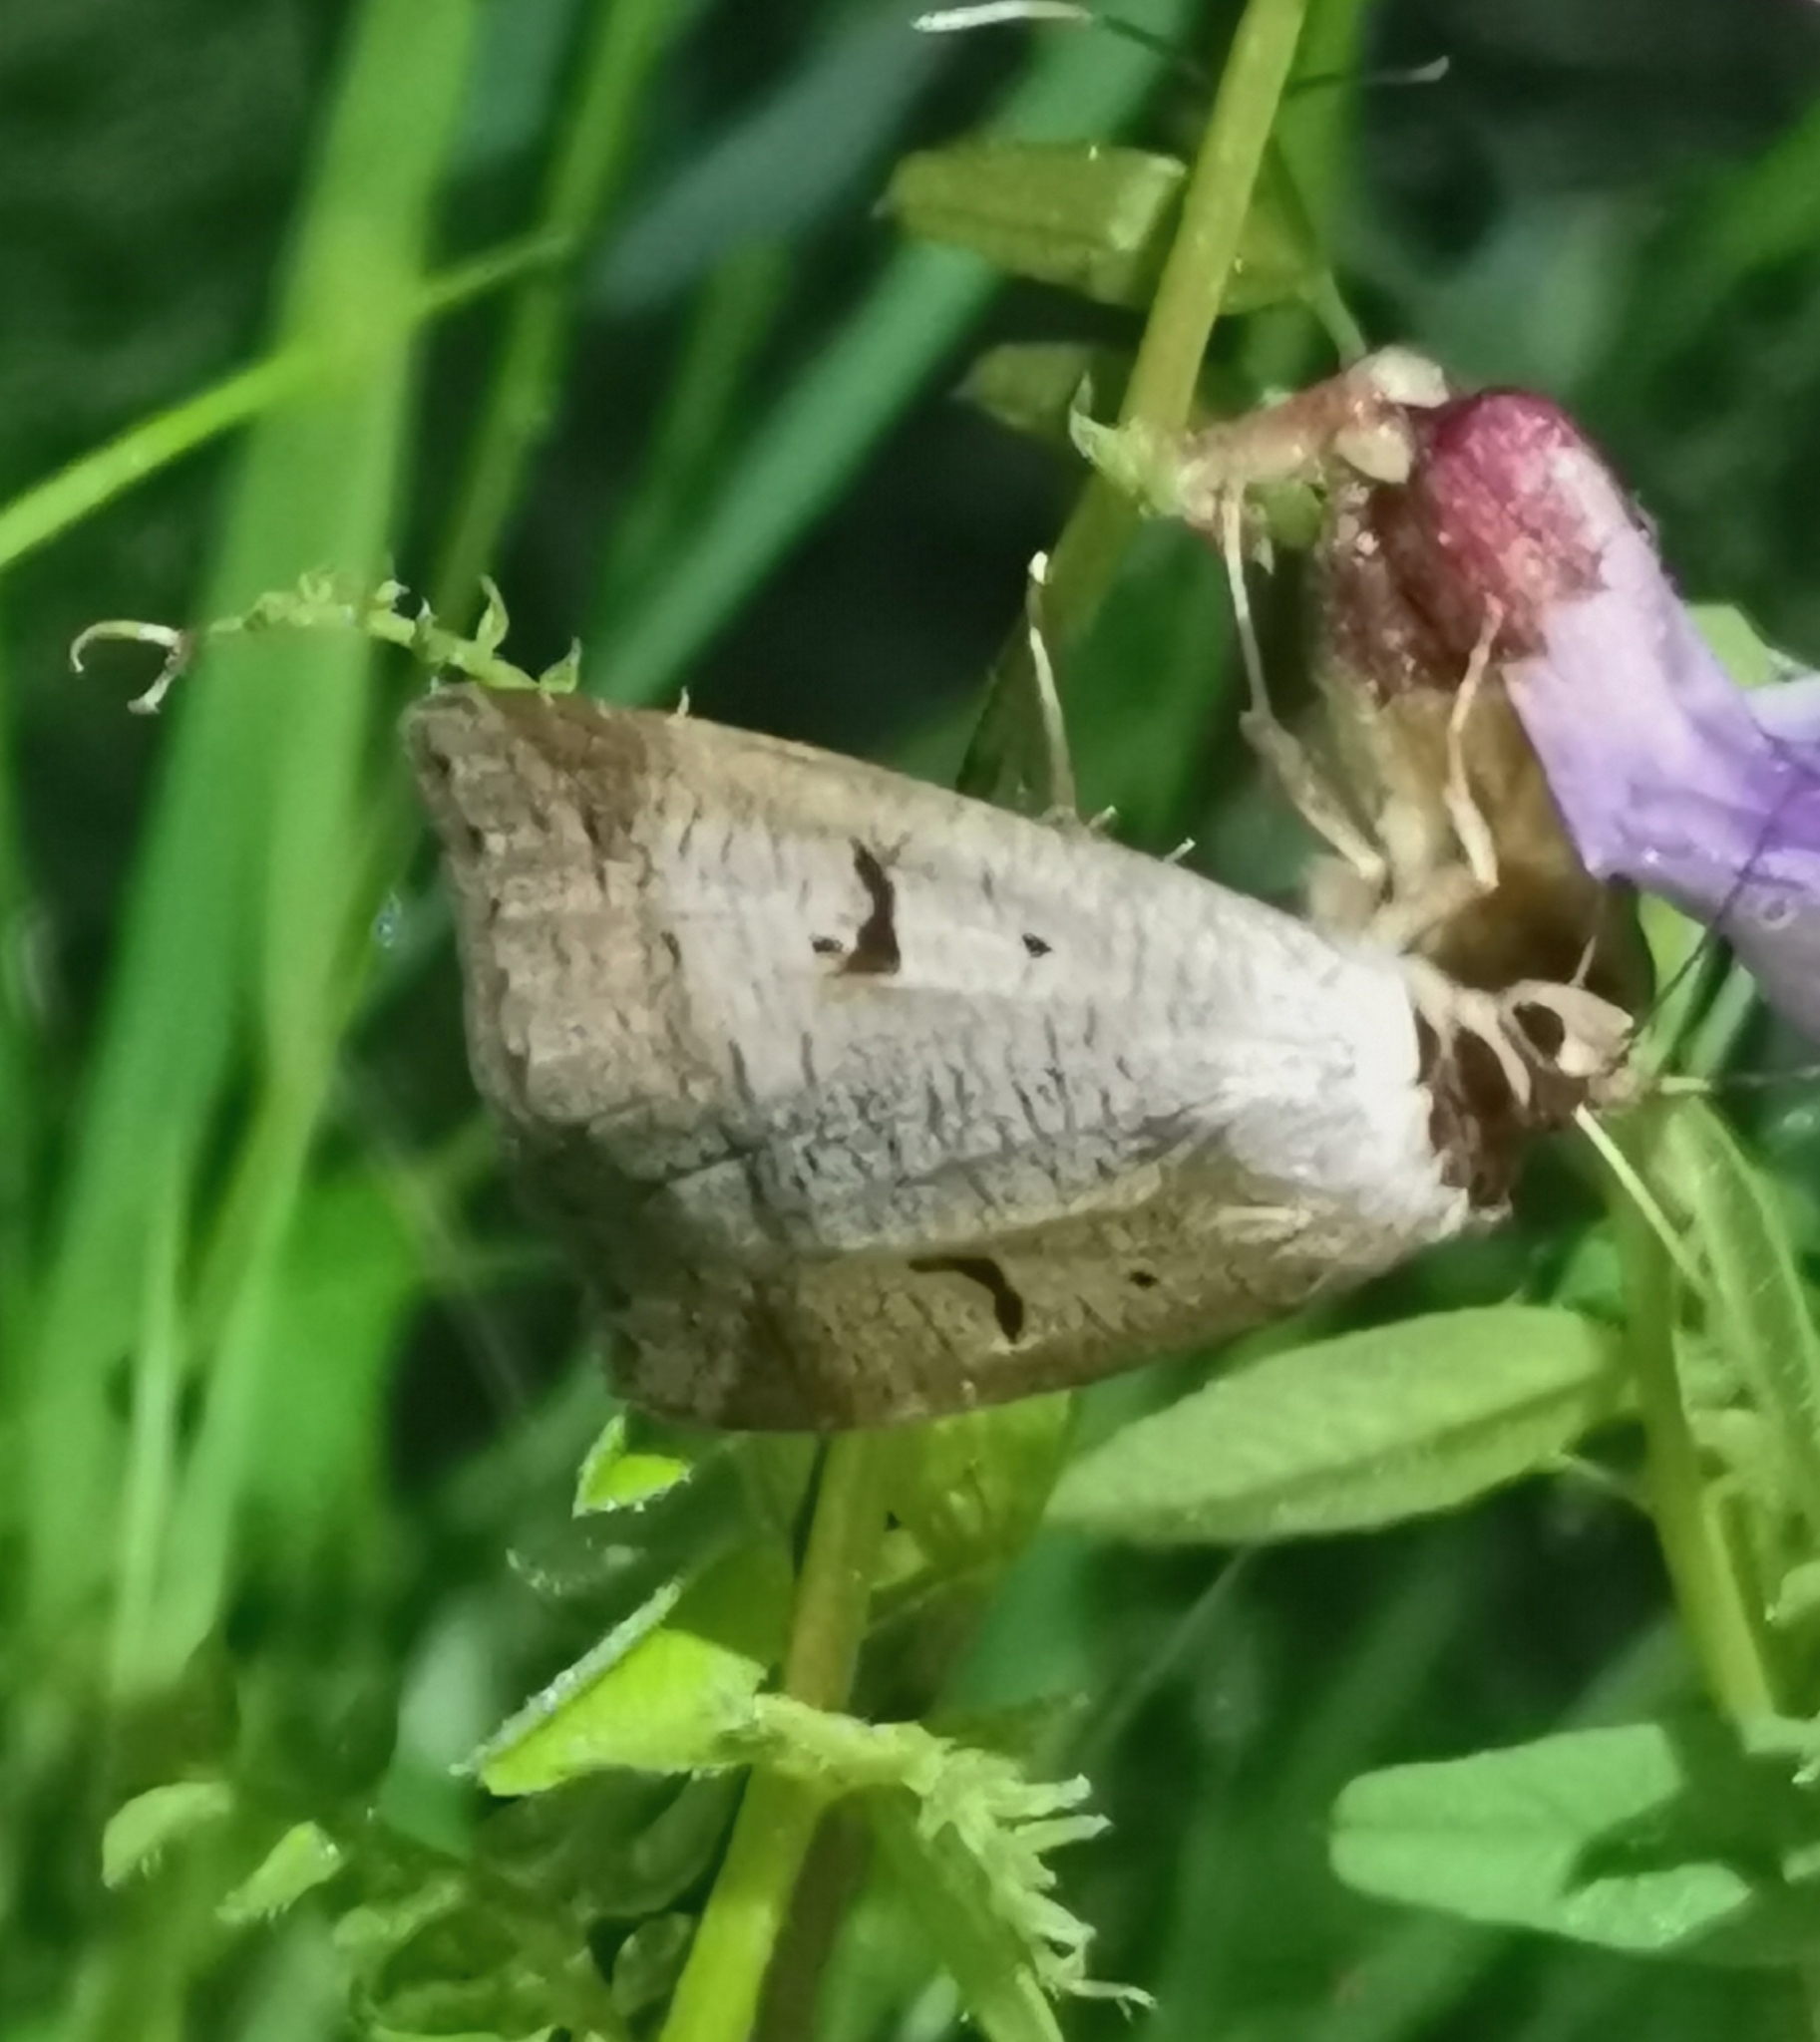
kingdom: Animalia
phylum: Arthropoda
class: Insecta
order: Lepidoptera
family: Erebidae
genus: Lygephila
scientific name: Lygephila pastinum
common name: Blackneck
